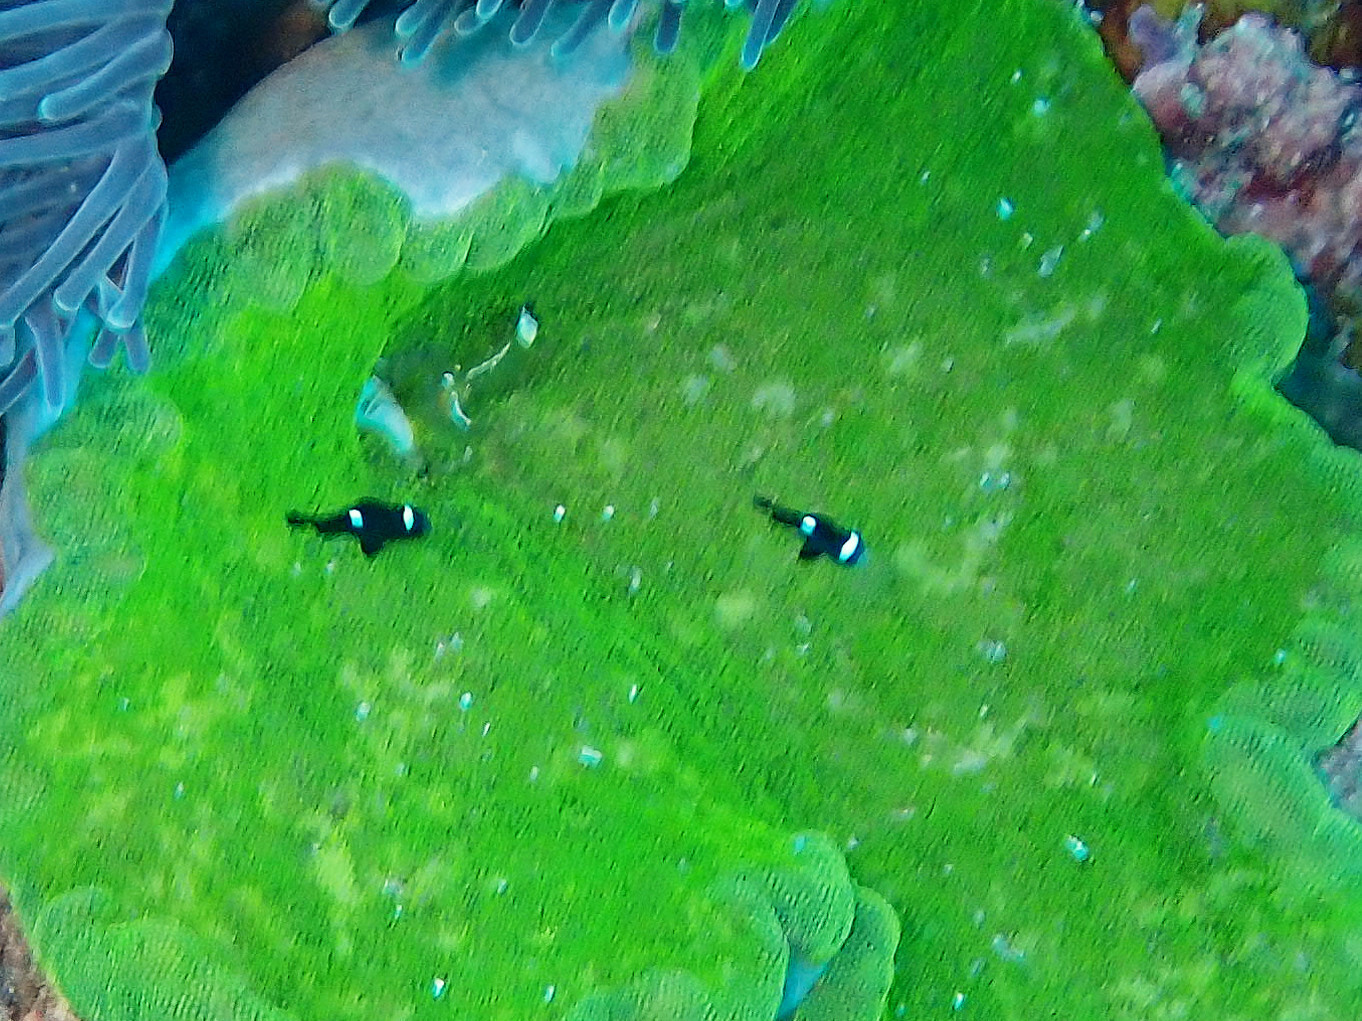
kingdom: Animalia
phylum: Chordata
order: Perciformes
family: Pomacentridae
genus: Dascyllus
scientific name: Dascyllus trimaculatus
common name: Threespot dascyllus
